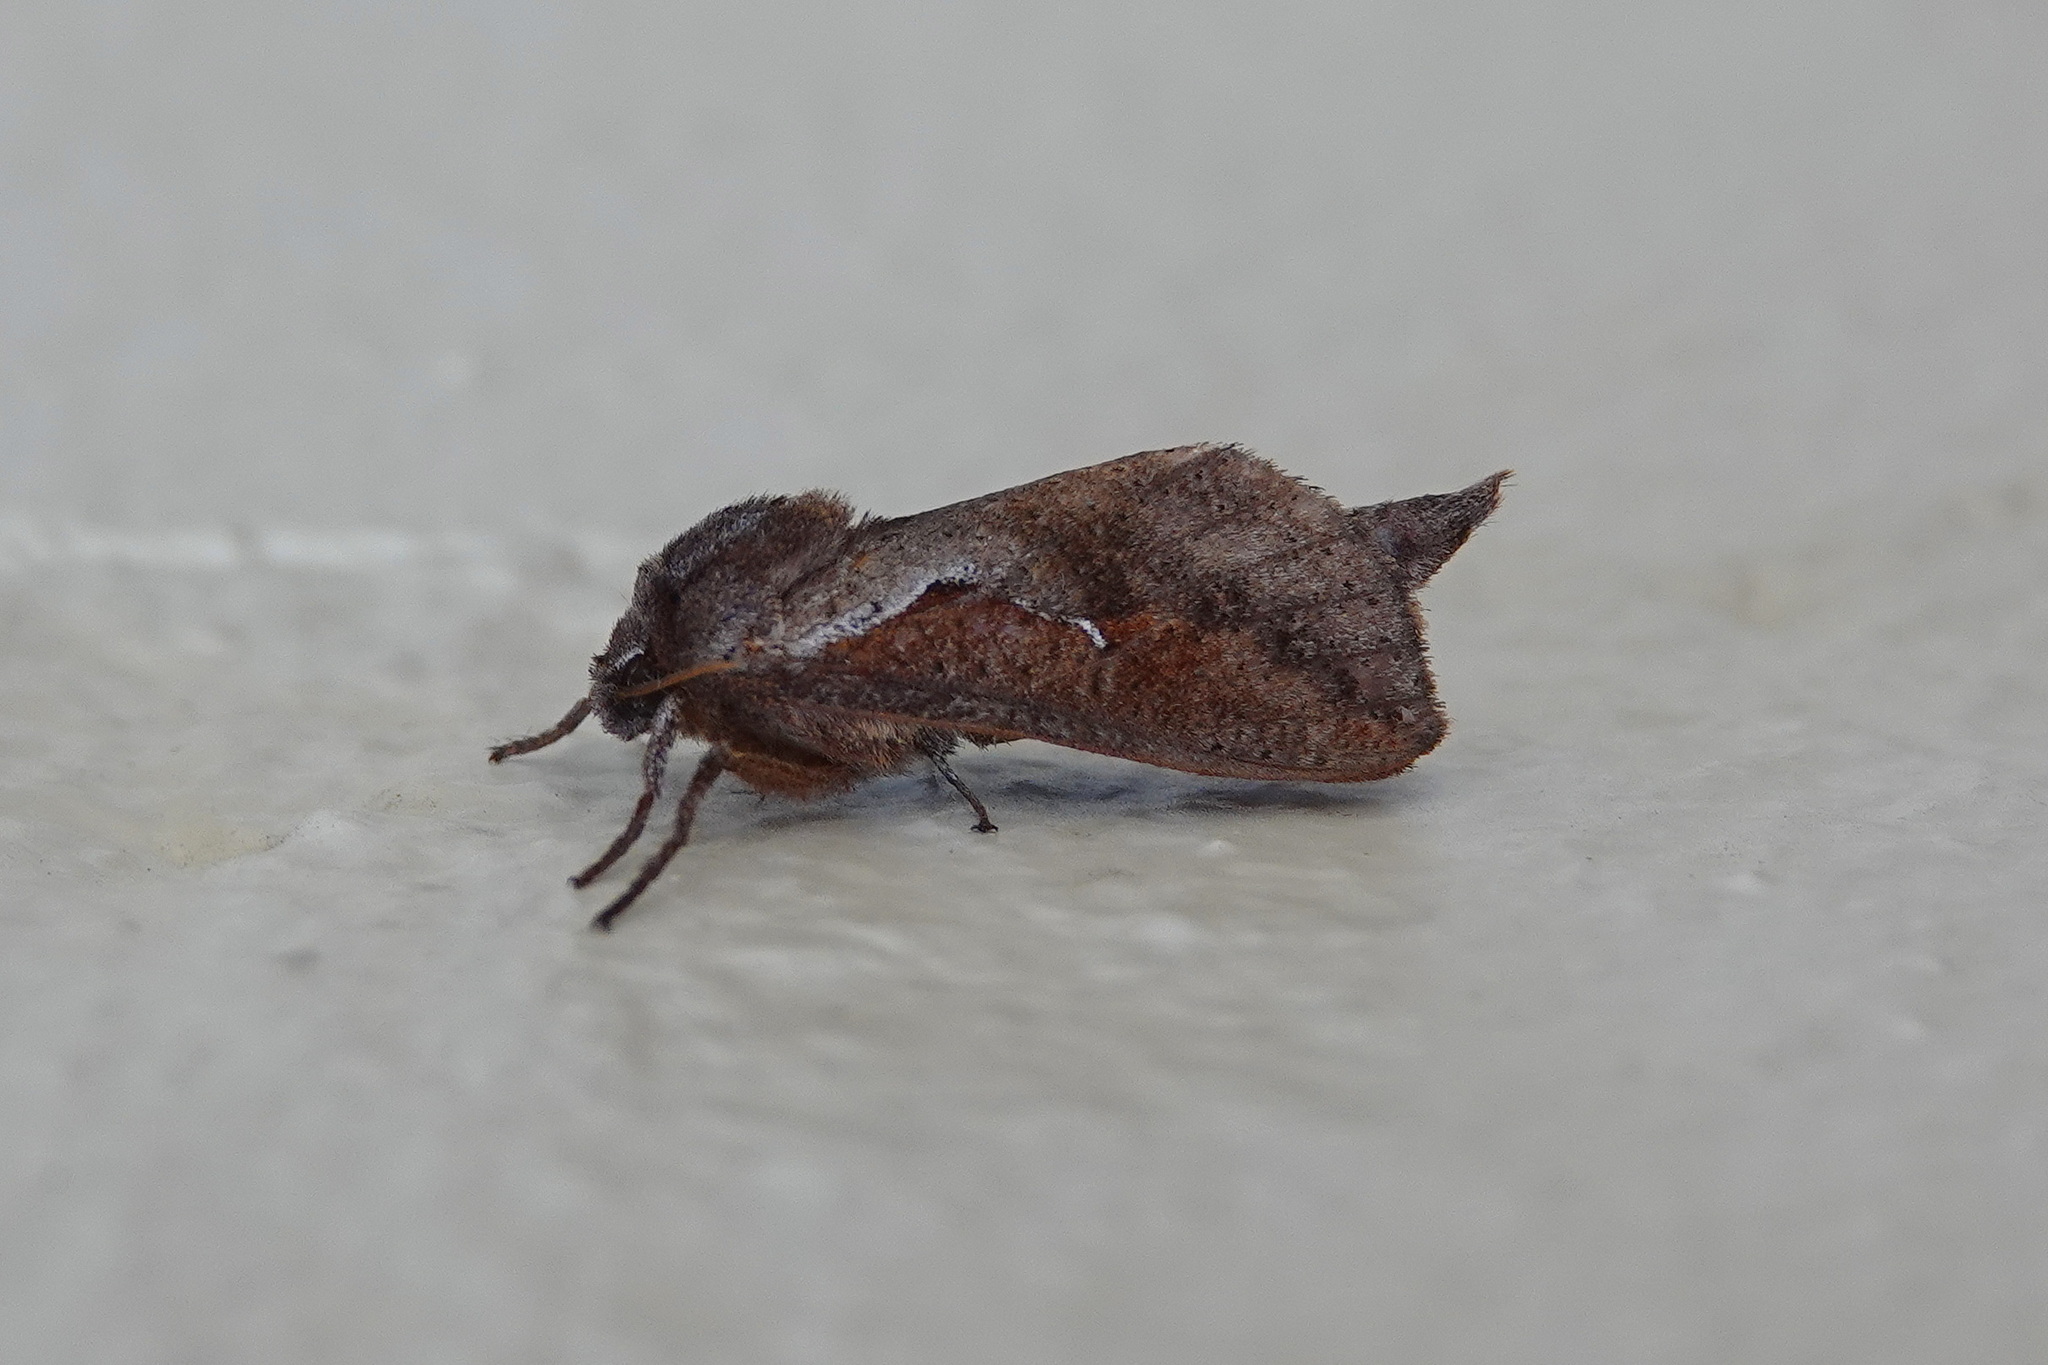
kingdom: Animalia
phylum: Arthropoda
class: Insecta
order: Lepidoptera
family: Hepialidae
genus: Elhamma
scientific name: Elhamma australasiae
